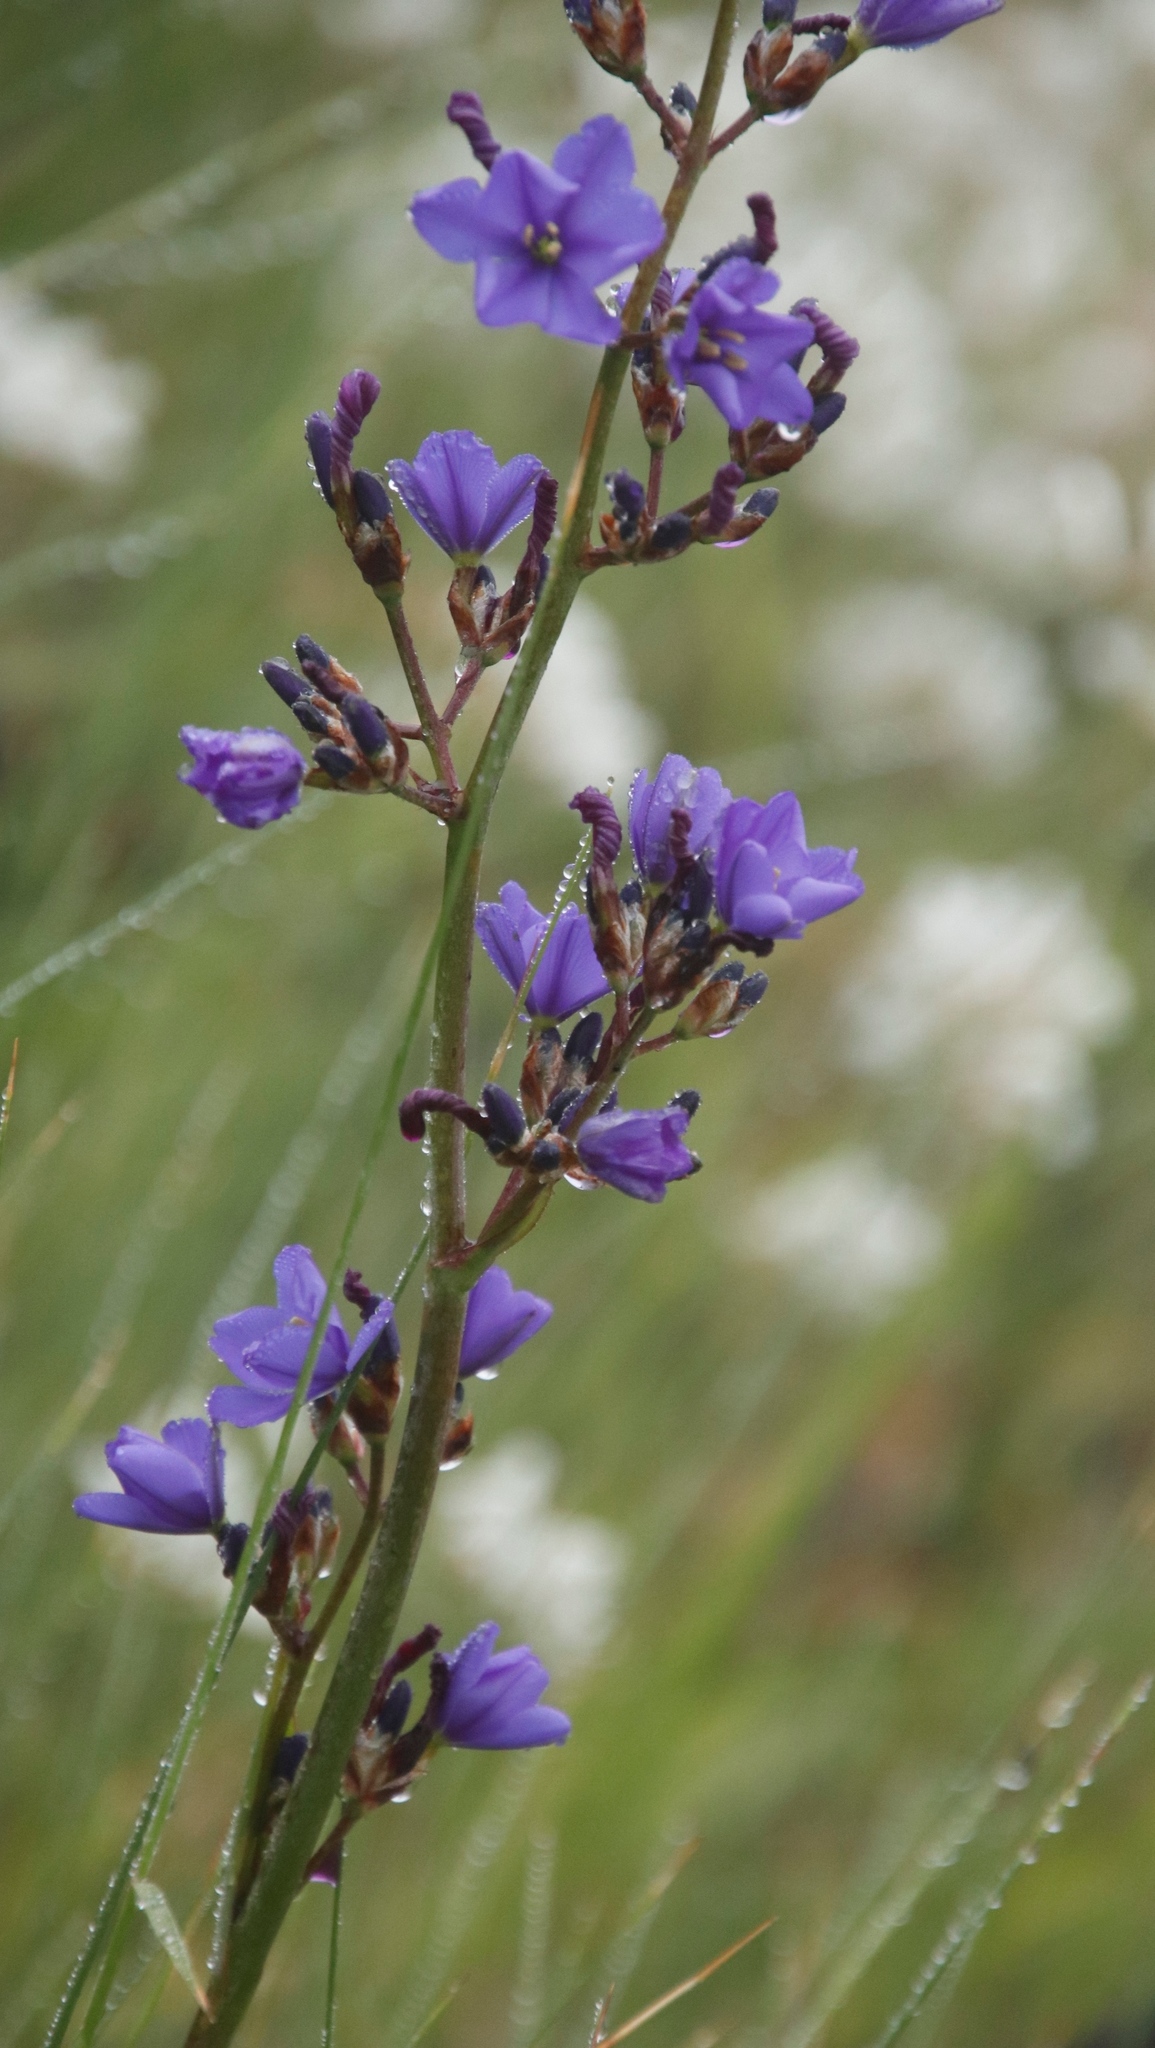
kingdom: Plantae
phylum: Tracheophyta
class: Liliopsida
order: Asparagales
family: Iridaceae
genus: Aristea
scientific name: Aristea bakeri
